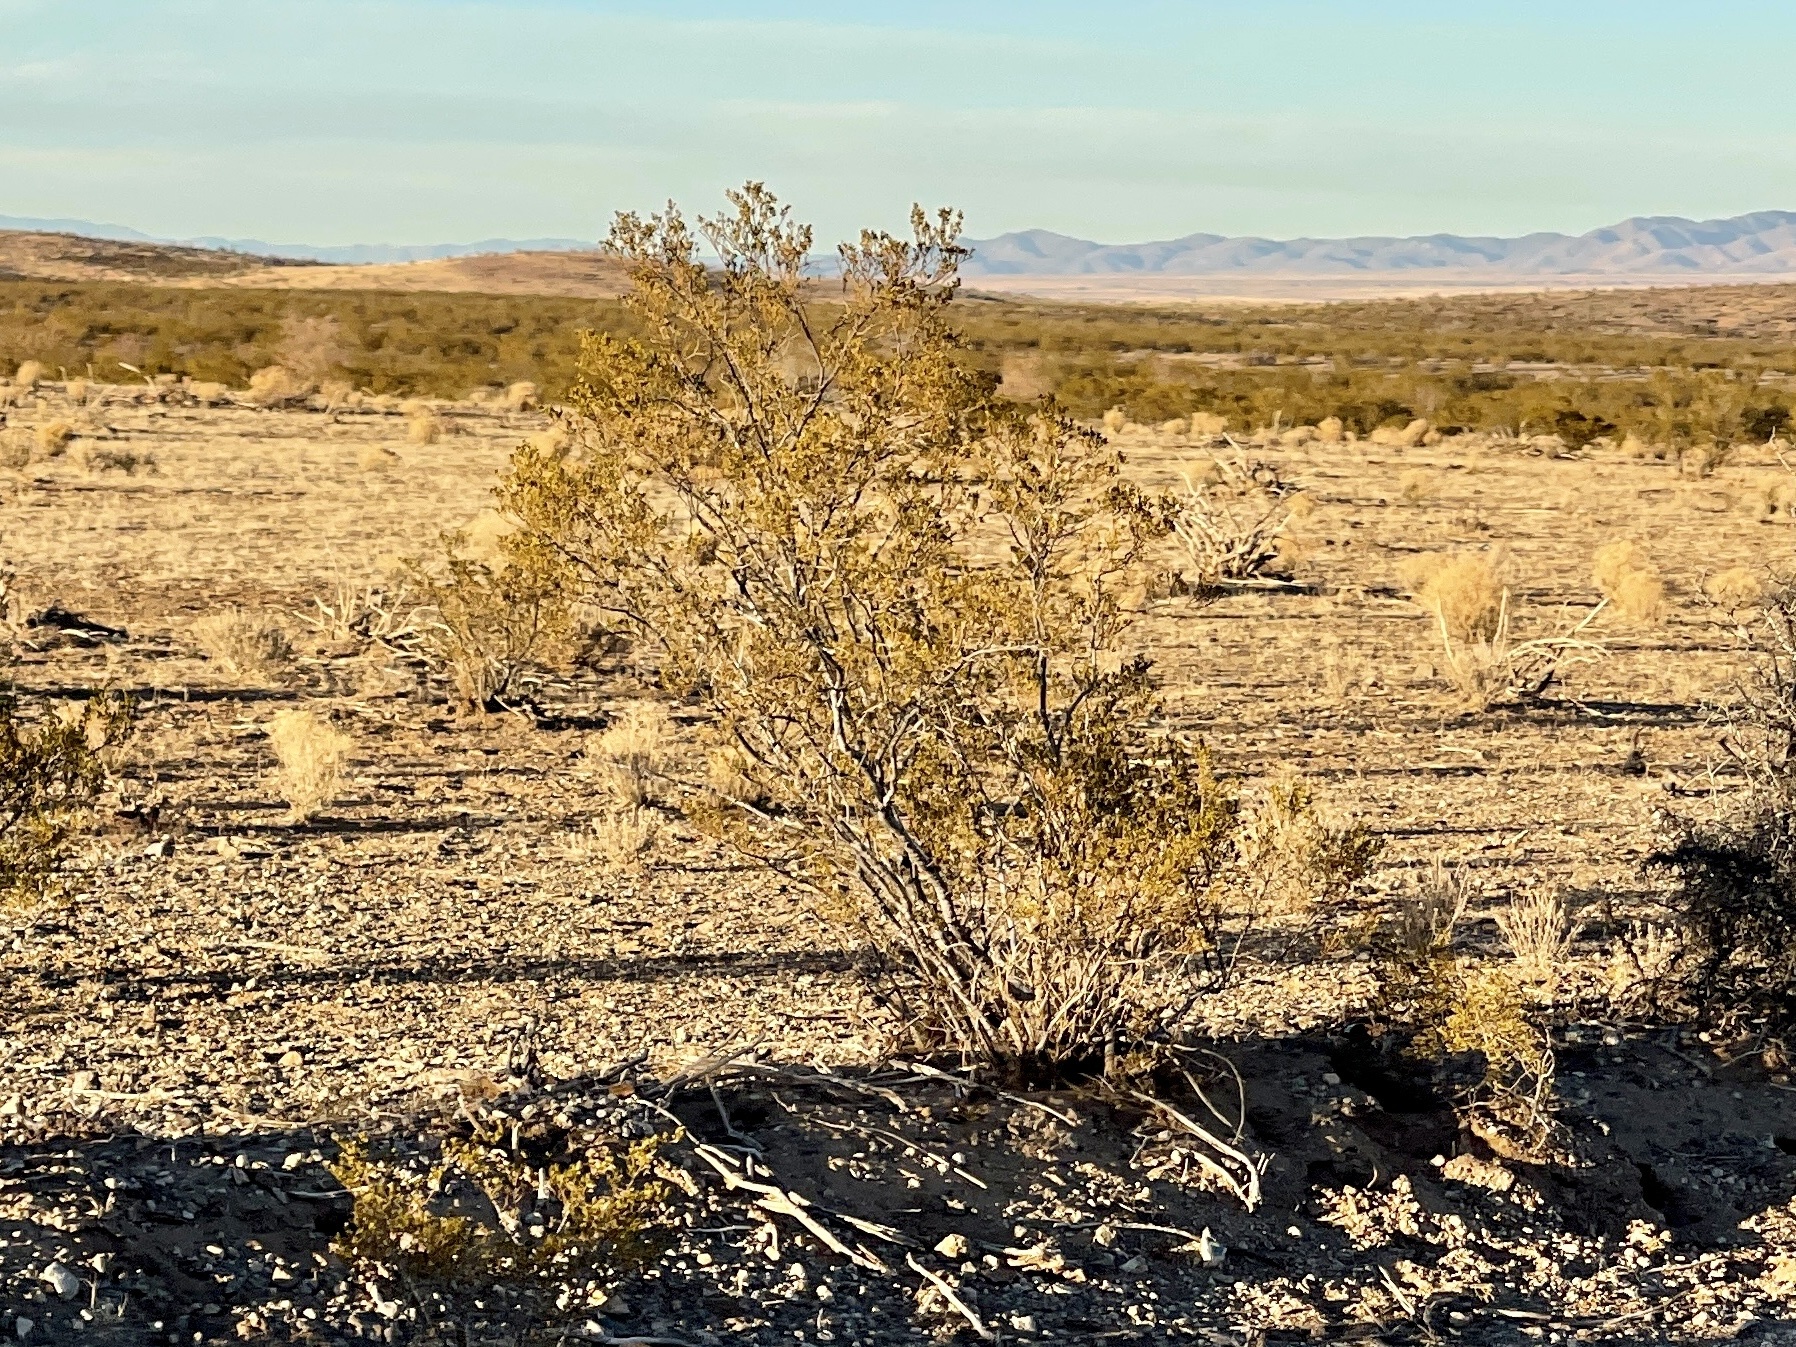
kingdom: Plantae
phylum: Tracheophyta
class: Magnoliopsida
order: Zygophyllales
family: Zygophyllaceae
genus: Larrea
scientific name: Larrea tridentata
